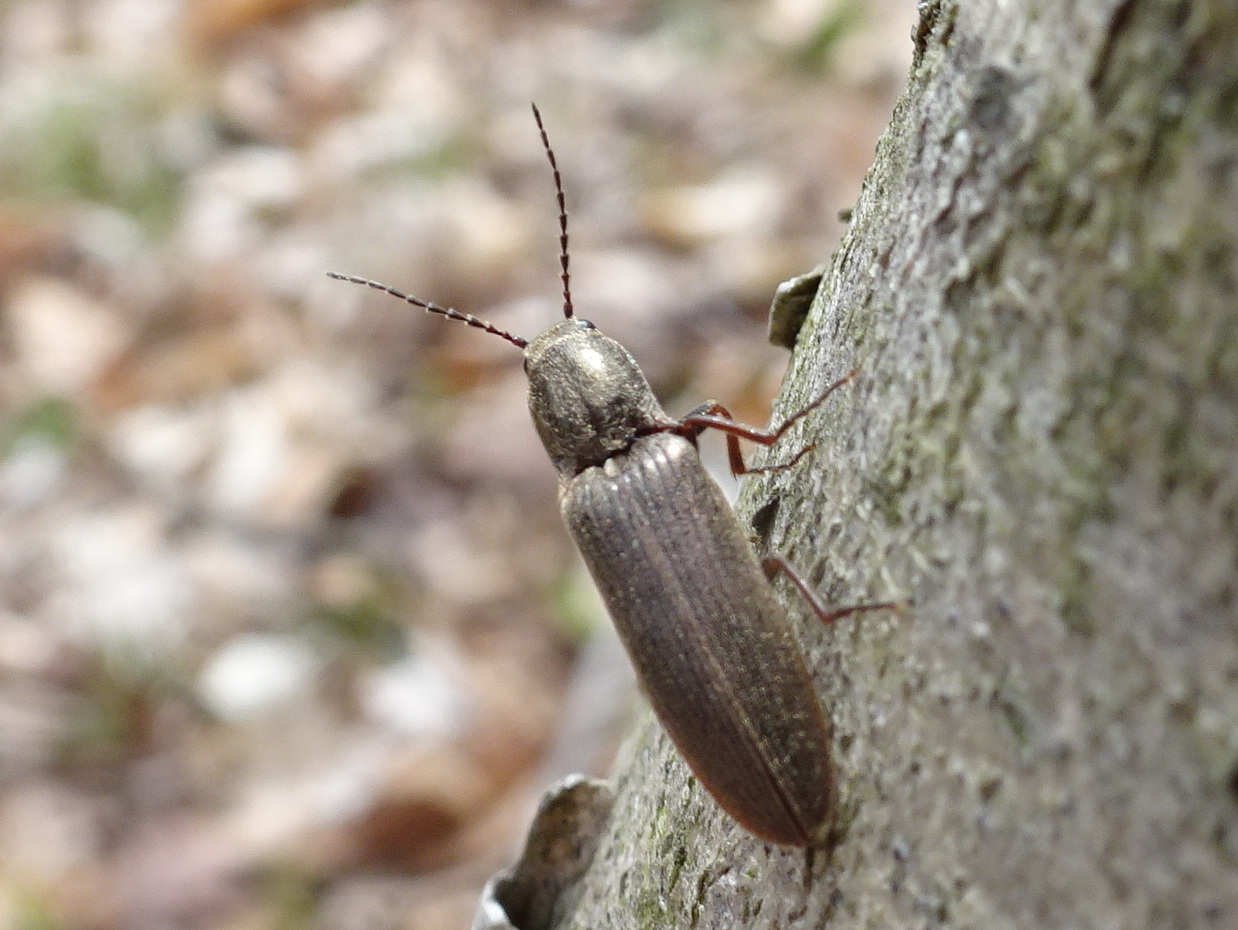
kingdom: Animalia
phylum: Arthropoda
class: Insecta
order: Coleoptera
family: Elateridae
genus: Sylvanelater
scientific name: Sylvanelater cylindriformis
